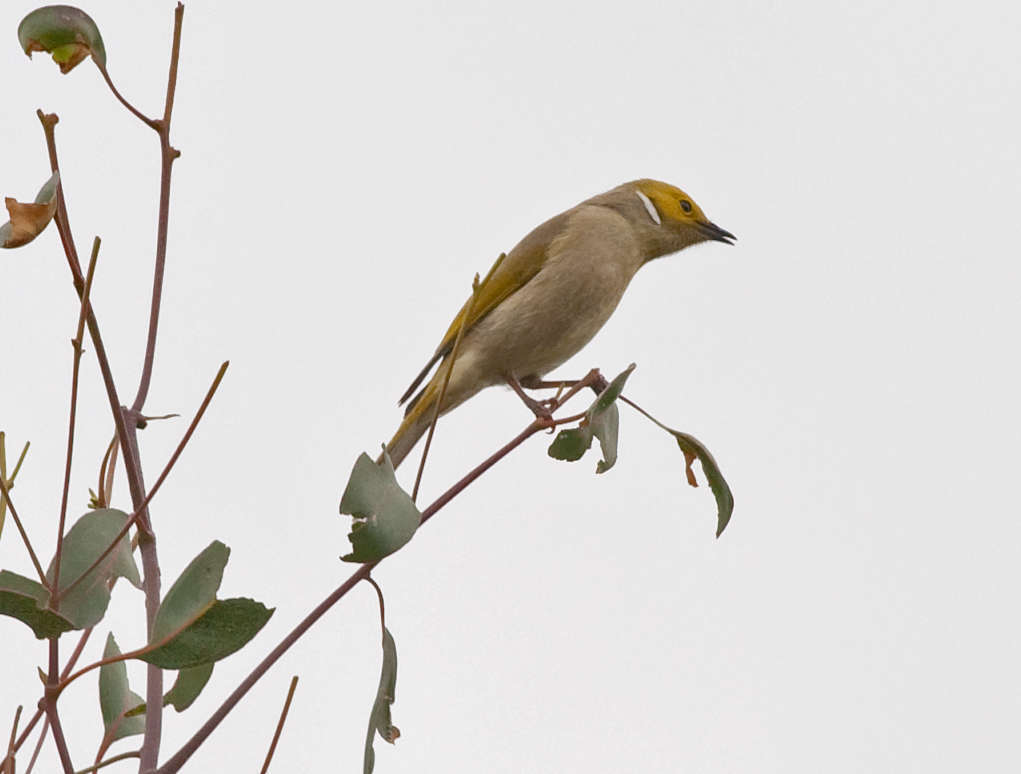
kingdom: Animalia
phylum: Chordata
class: Aves
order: Passeriformes
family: Meliphagidae
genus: Ptilotula
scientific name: Ptilotula penicillata
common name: White-plumed honeyeater
